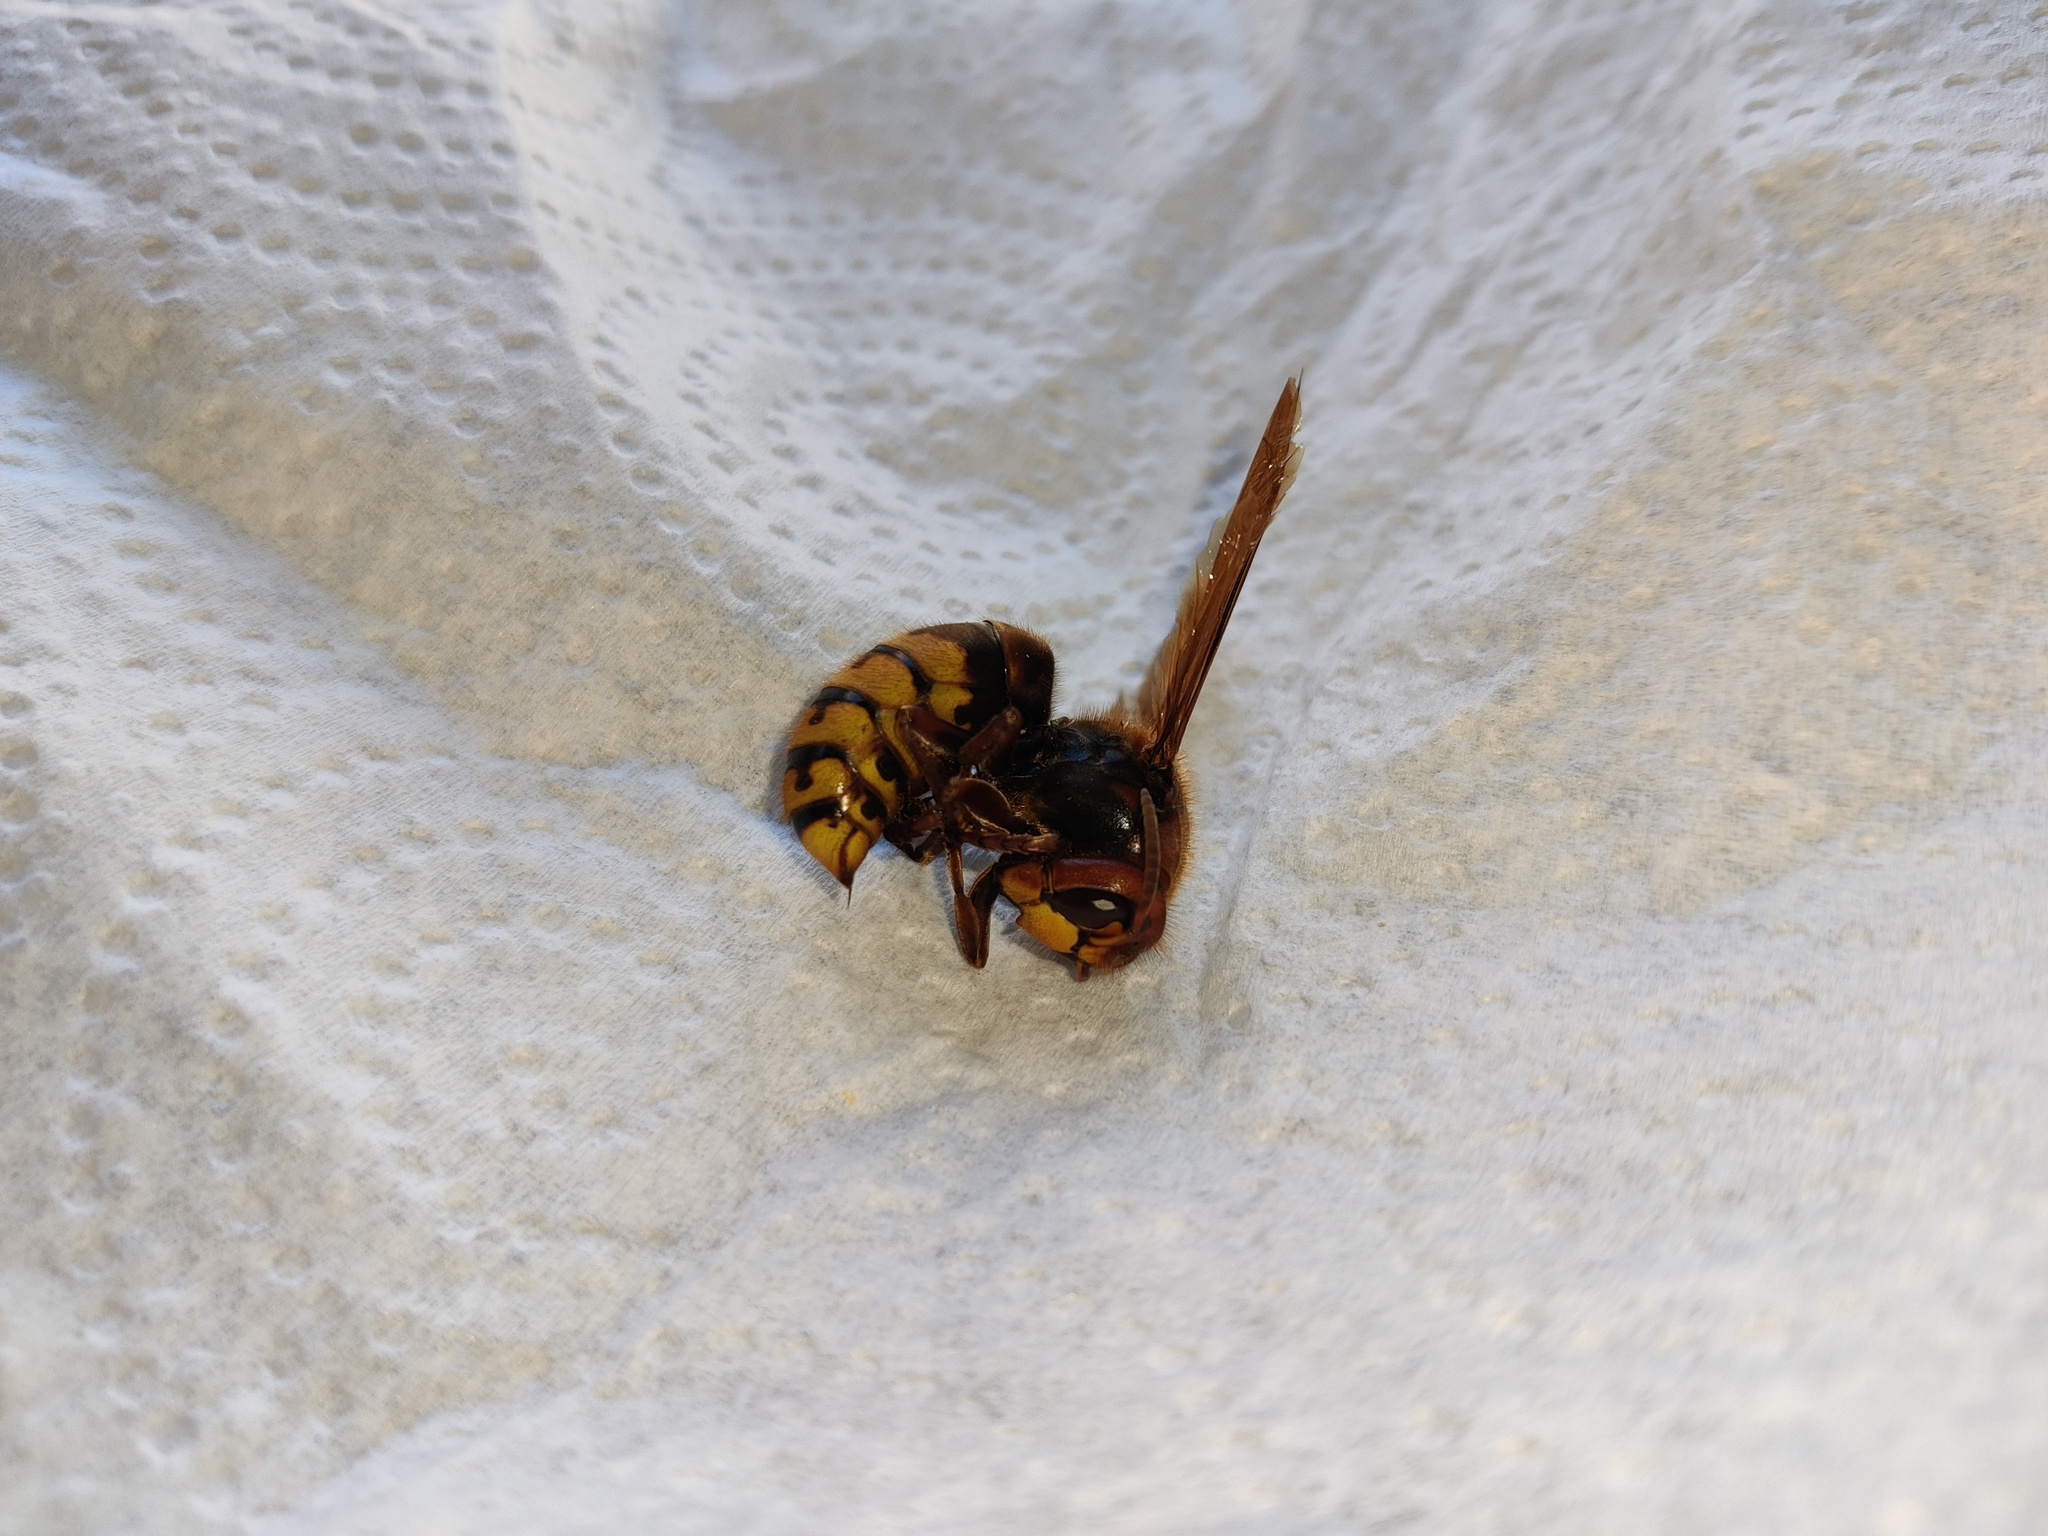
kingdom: Animalia
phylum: Arthropoda
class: Insecta
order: Hymenoptera
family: Vespidae
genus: Vespa
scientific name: Vespa crabro
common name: Hornet
